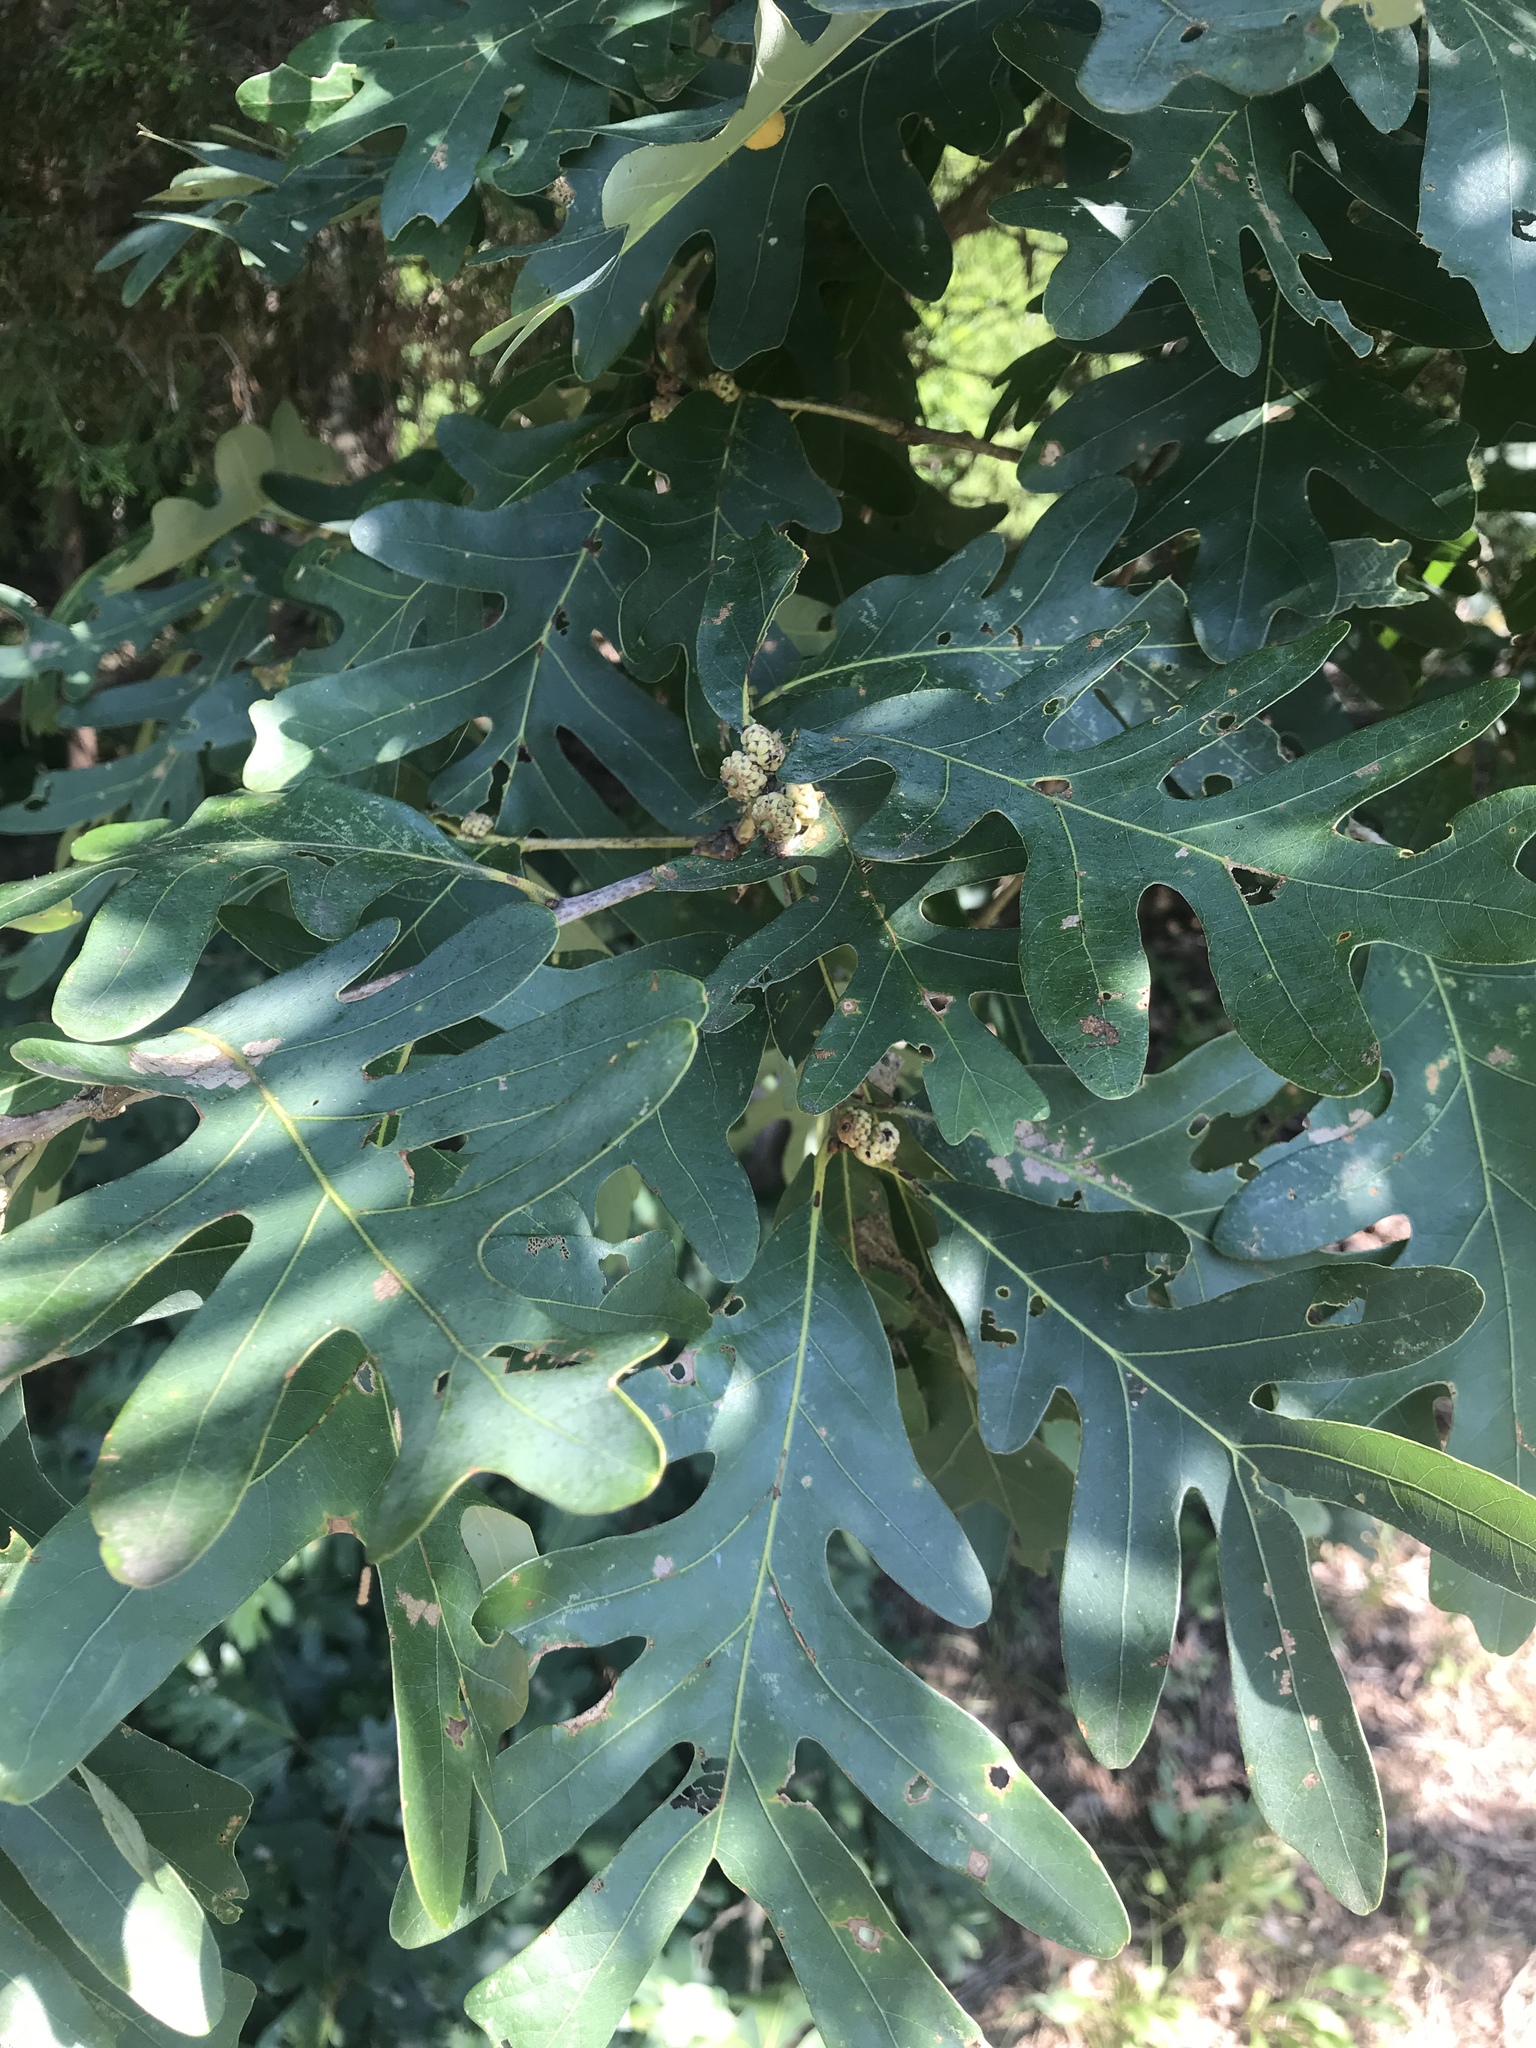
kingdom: Plantae
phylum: Tracheophyta
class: Magnoliopsida
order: Fagales
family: Fagaceae
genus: Quercus
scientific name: Quercus alba
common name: White oak
